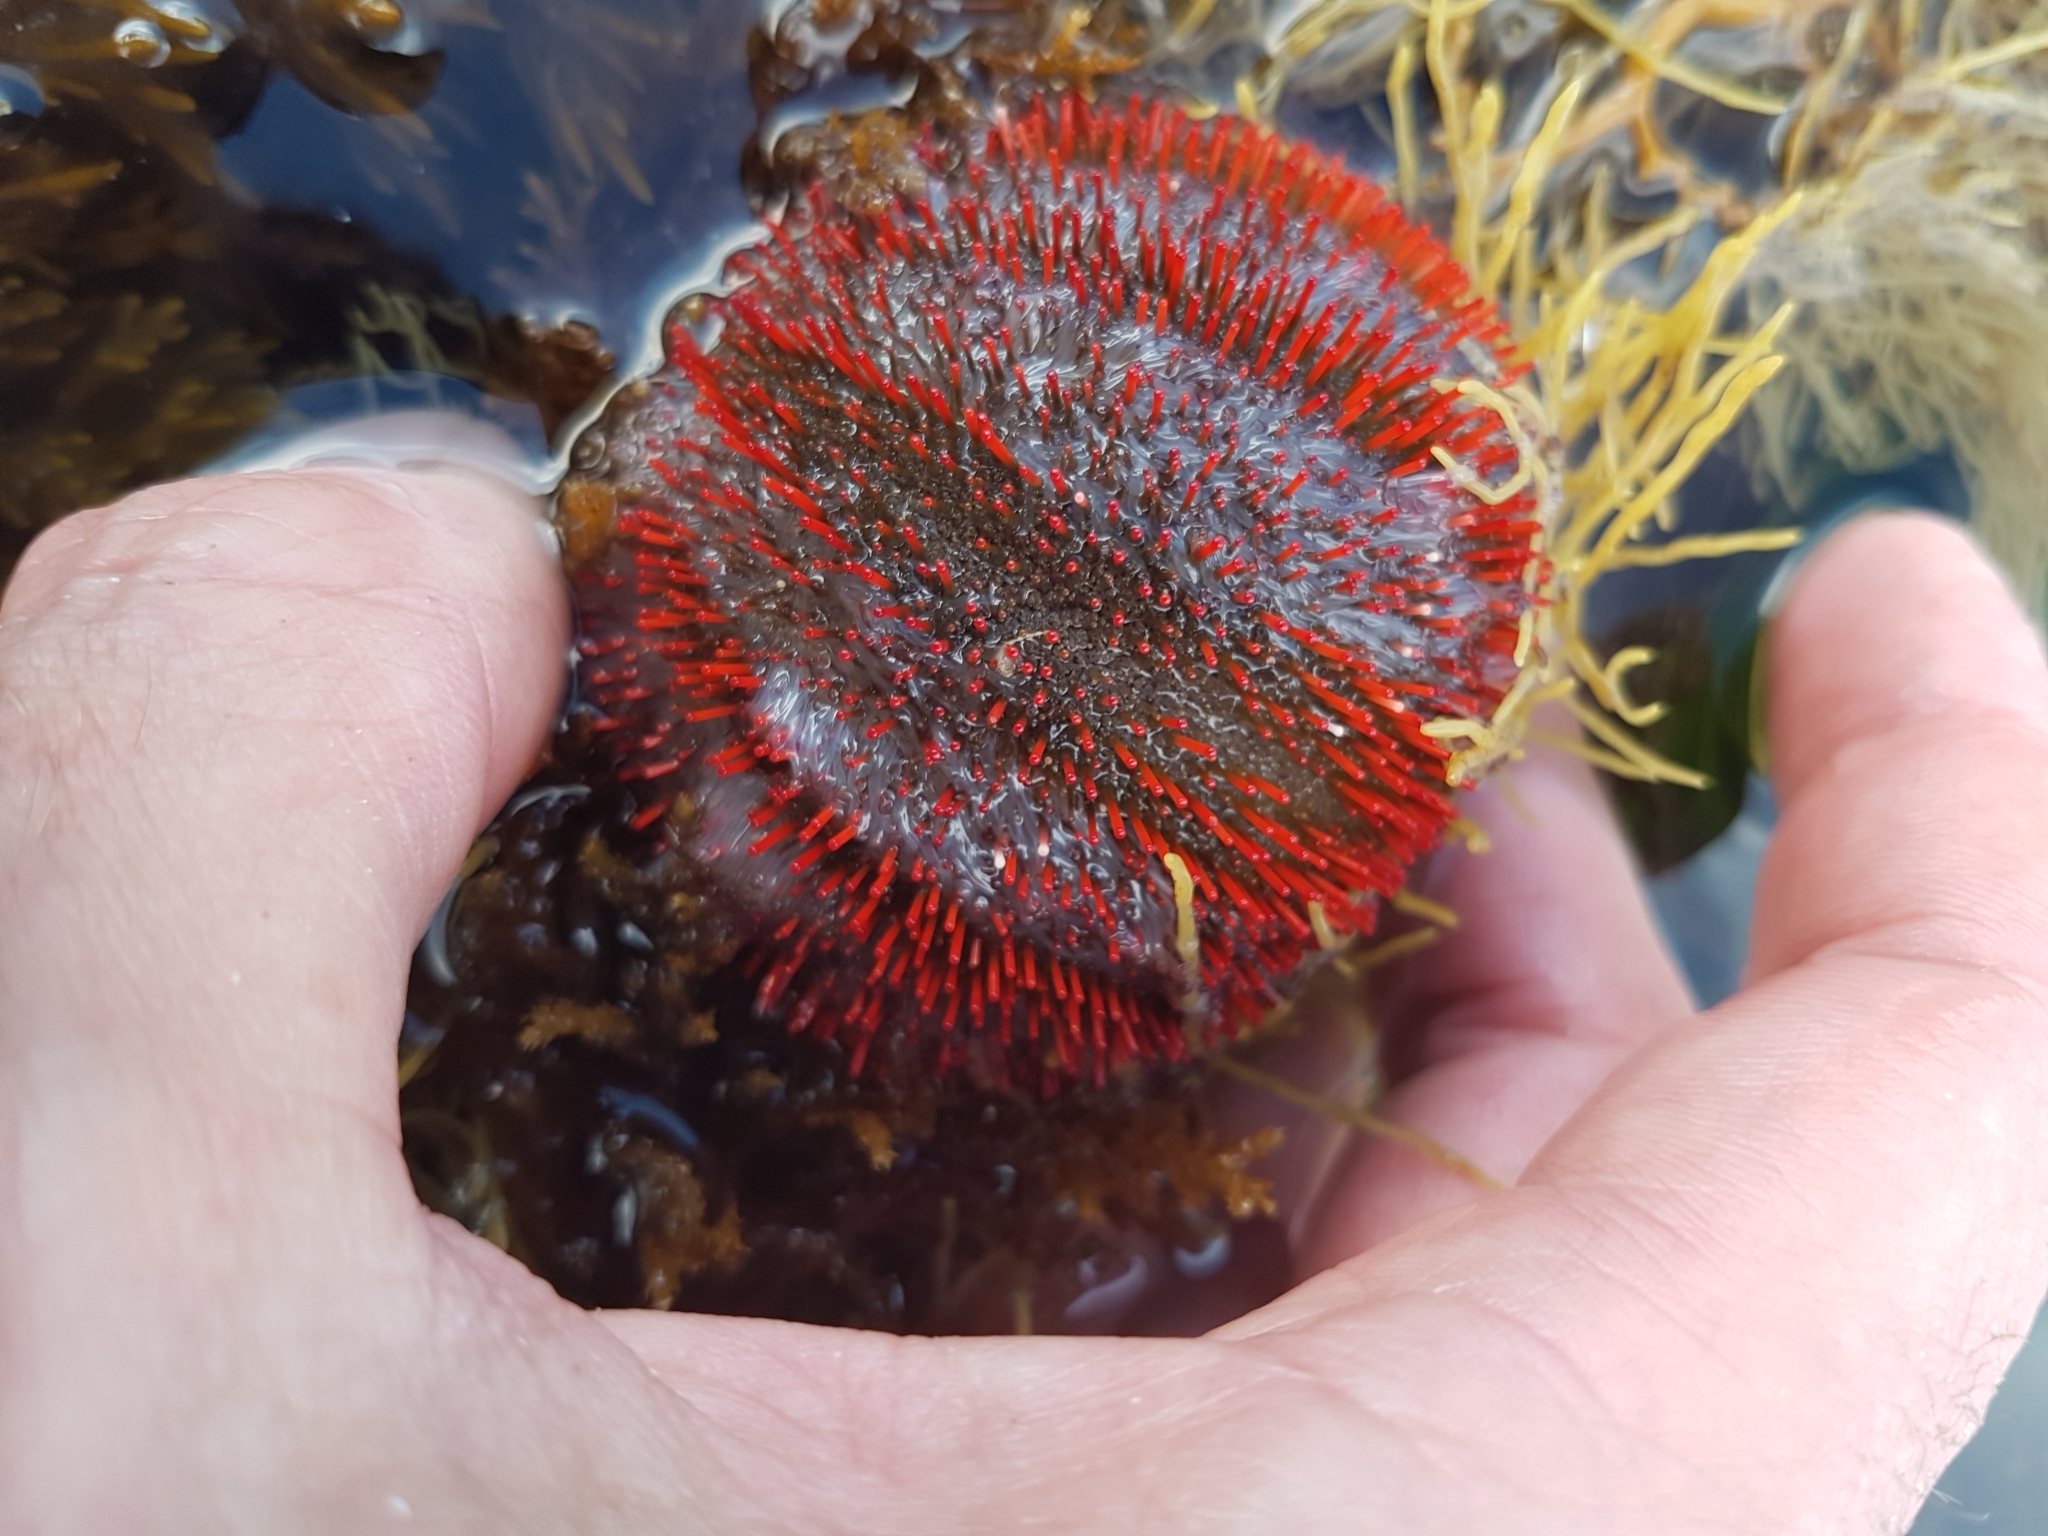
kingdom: Animalia
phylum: Echinodermata
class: Echinoidea
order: Camarodonta
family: Temnopleuridae
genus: Holopneustes
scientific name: Holopneustes porosissimus
